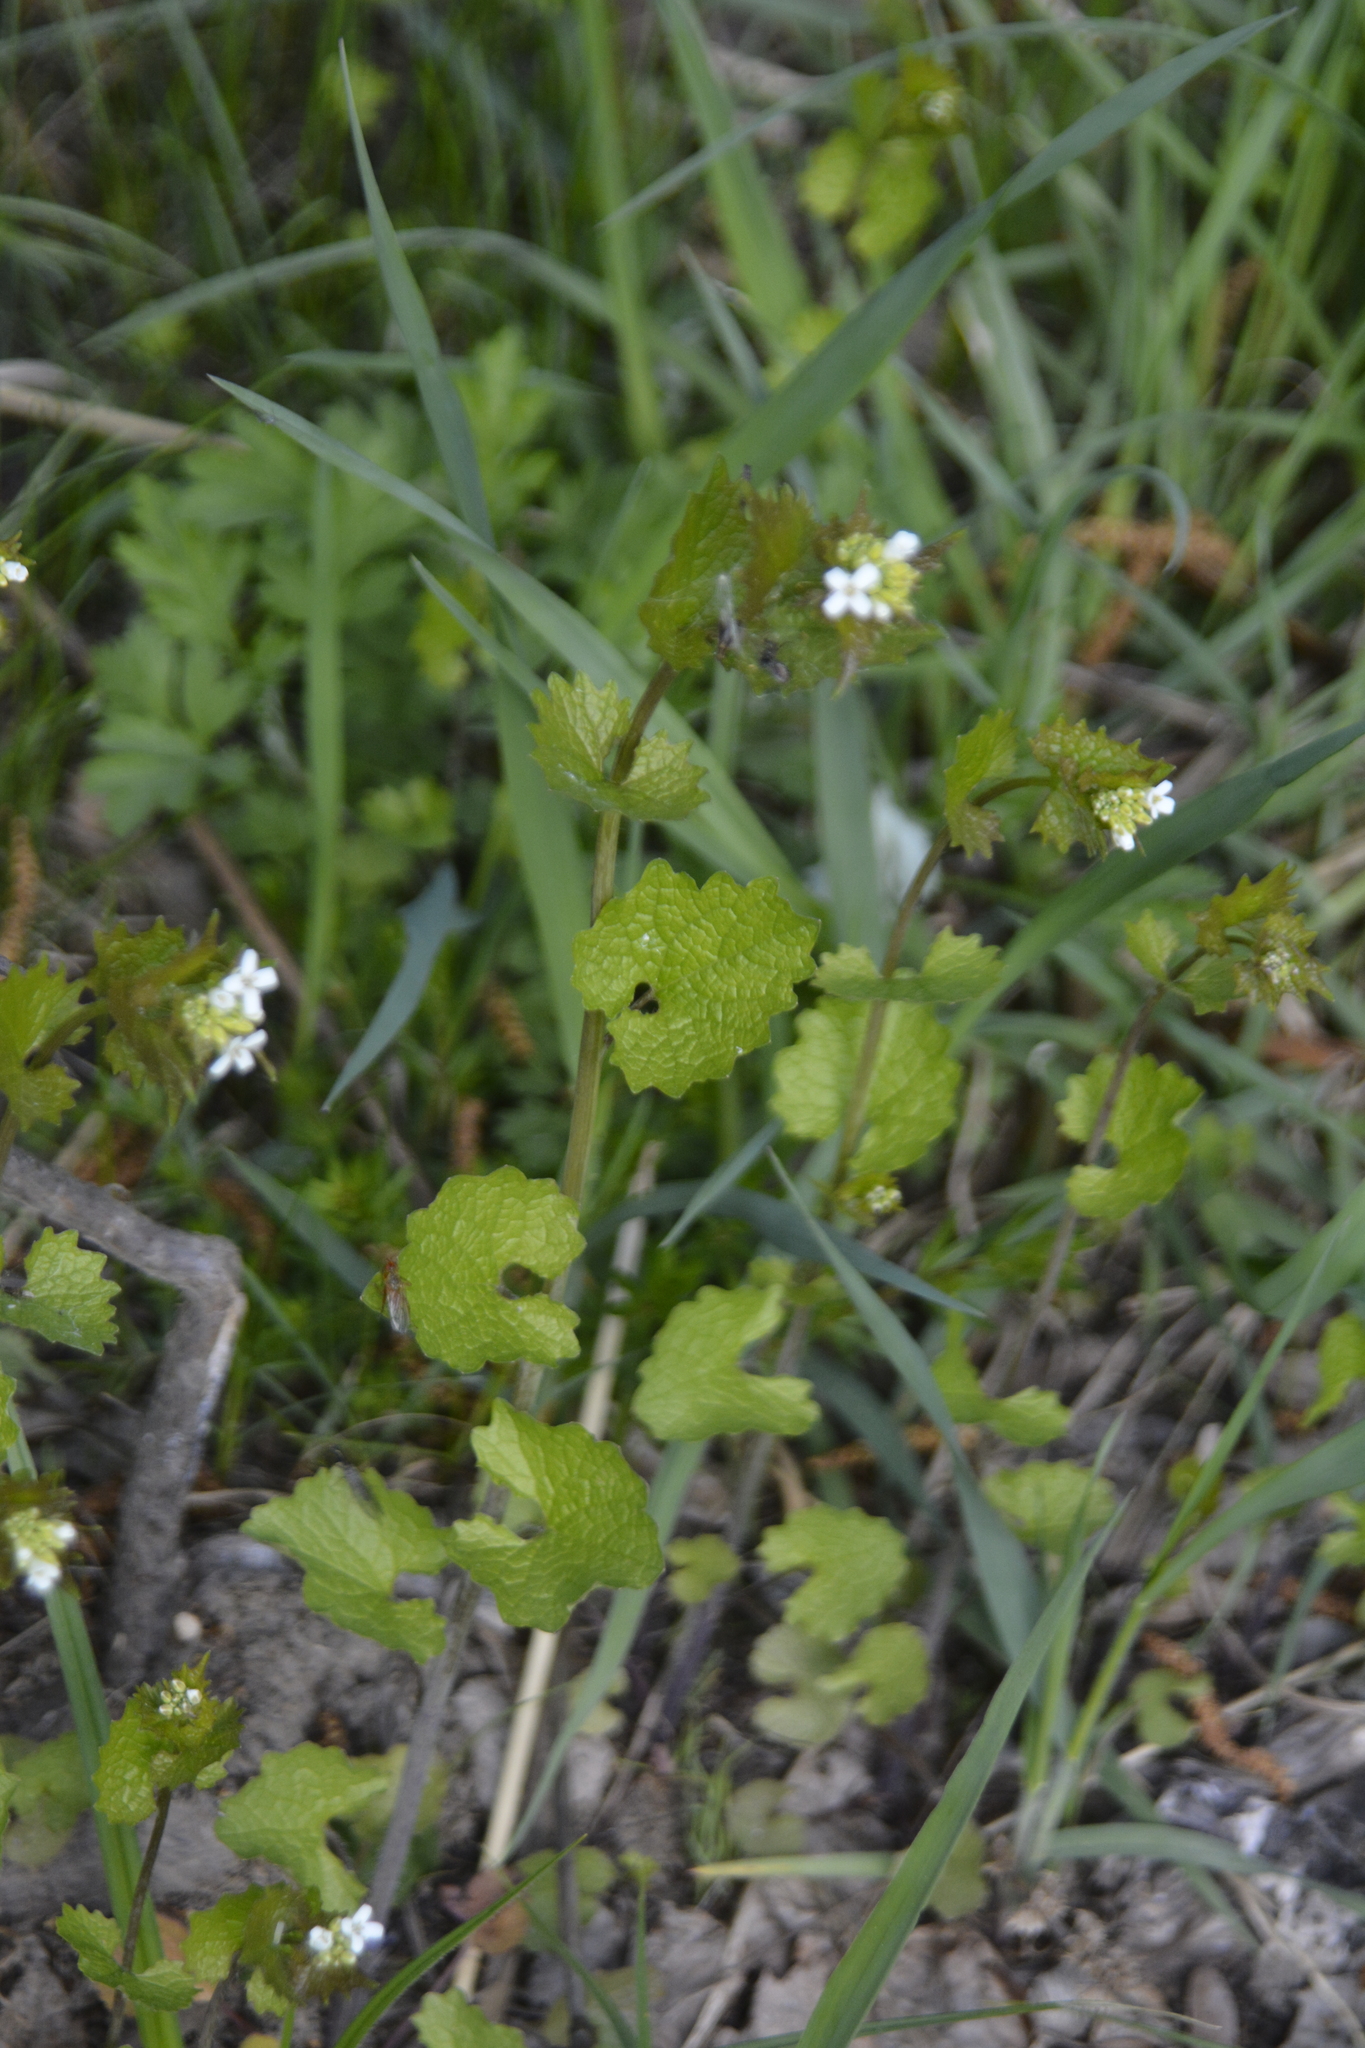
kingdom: Plantae
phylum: Tracheophyta
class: Magnoliopsida
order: Brassicales
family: Brassicaceae
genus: Alliaria
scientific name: Alliaria petiolata
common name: Garlic mustard
